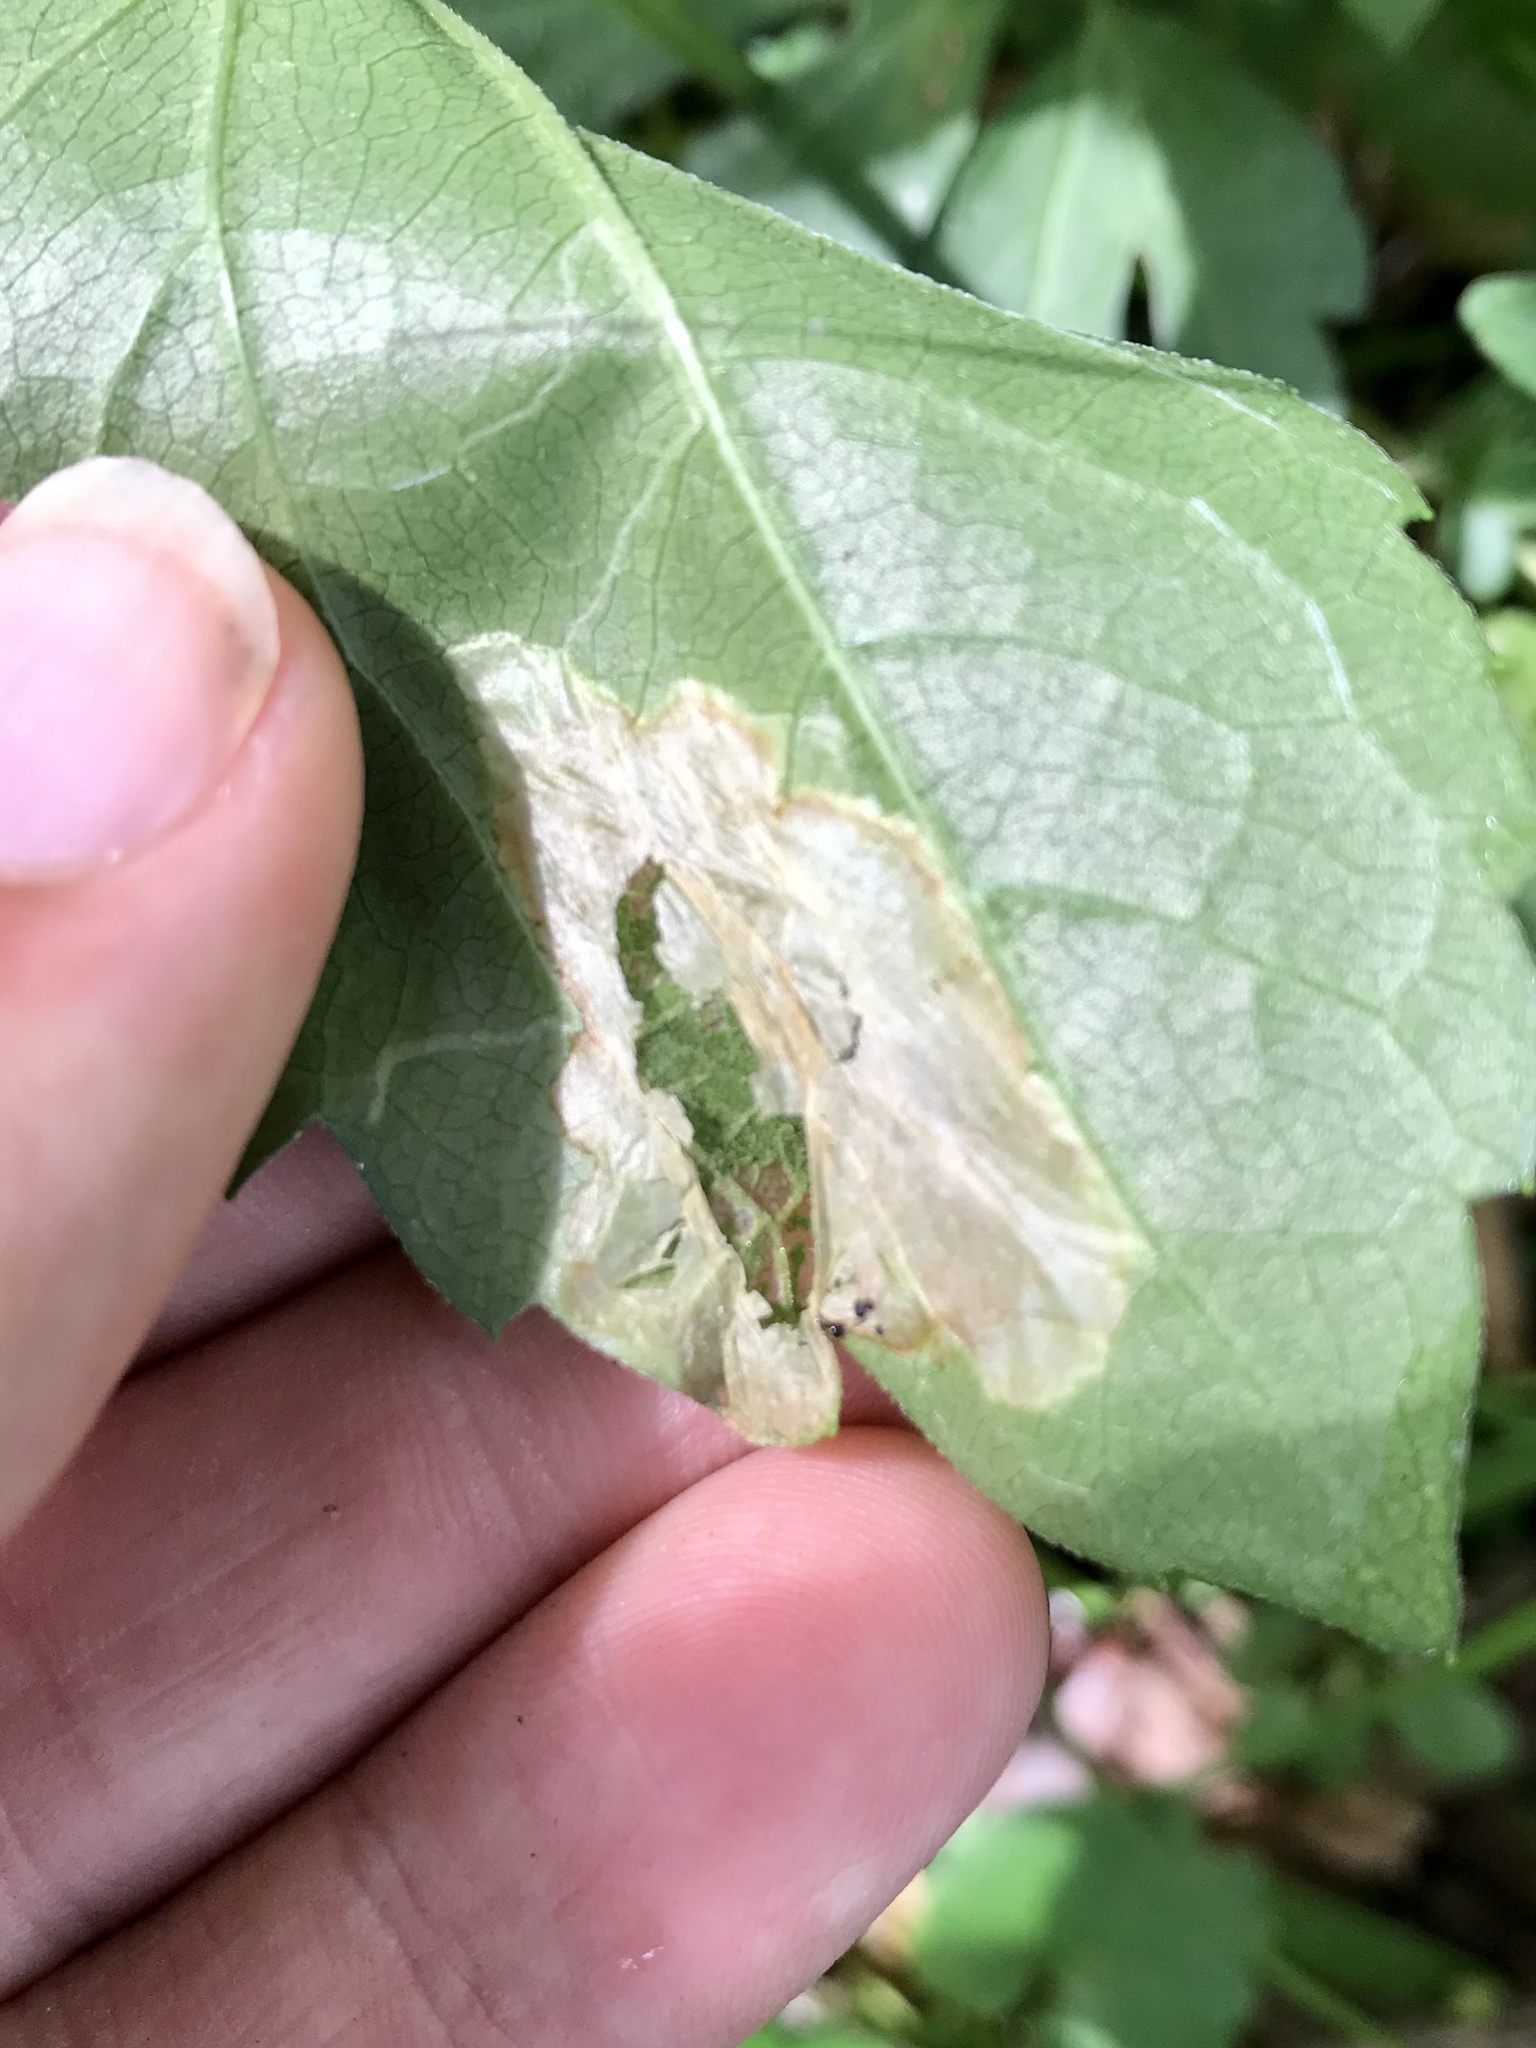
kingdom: Animalia
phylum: Arthropoda
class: Insecta
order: Lepidoptera
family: Gracillariidae
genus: Leucospilapteryx
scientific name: Leucospilapteryx venustella
